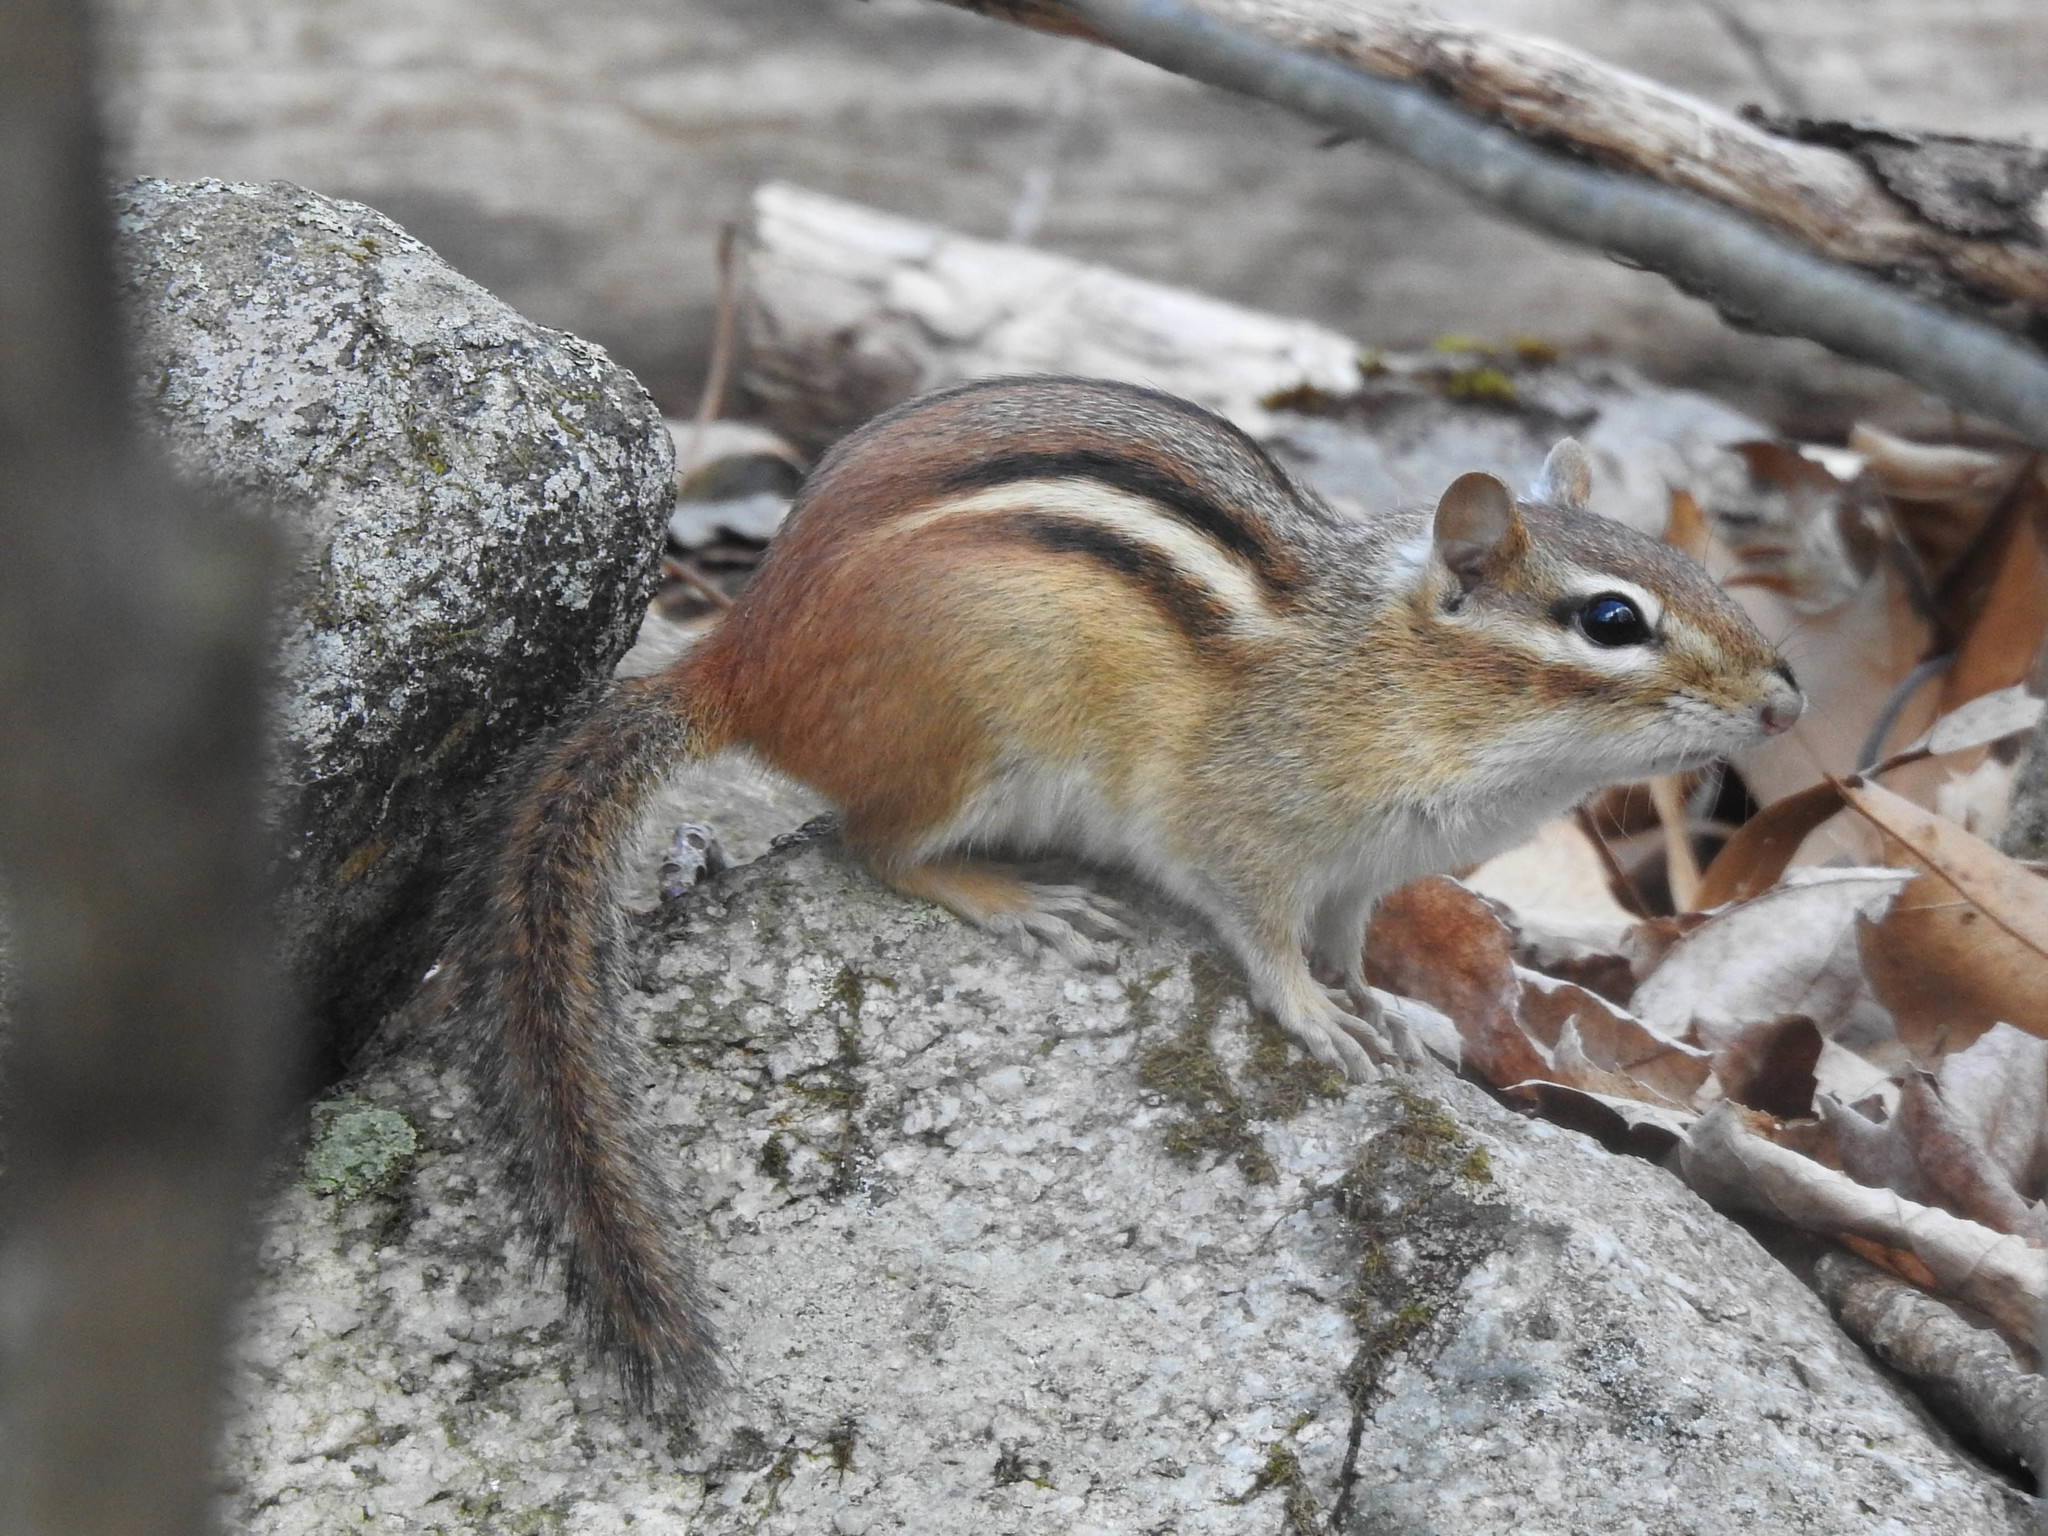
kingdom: Animalia
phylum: Chordata
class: Mammalia
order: Rodentia
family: Sciuridae
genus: Tamias
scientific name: Tamias striatus
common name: Eastern chipmunk
